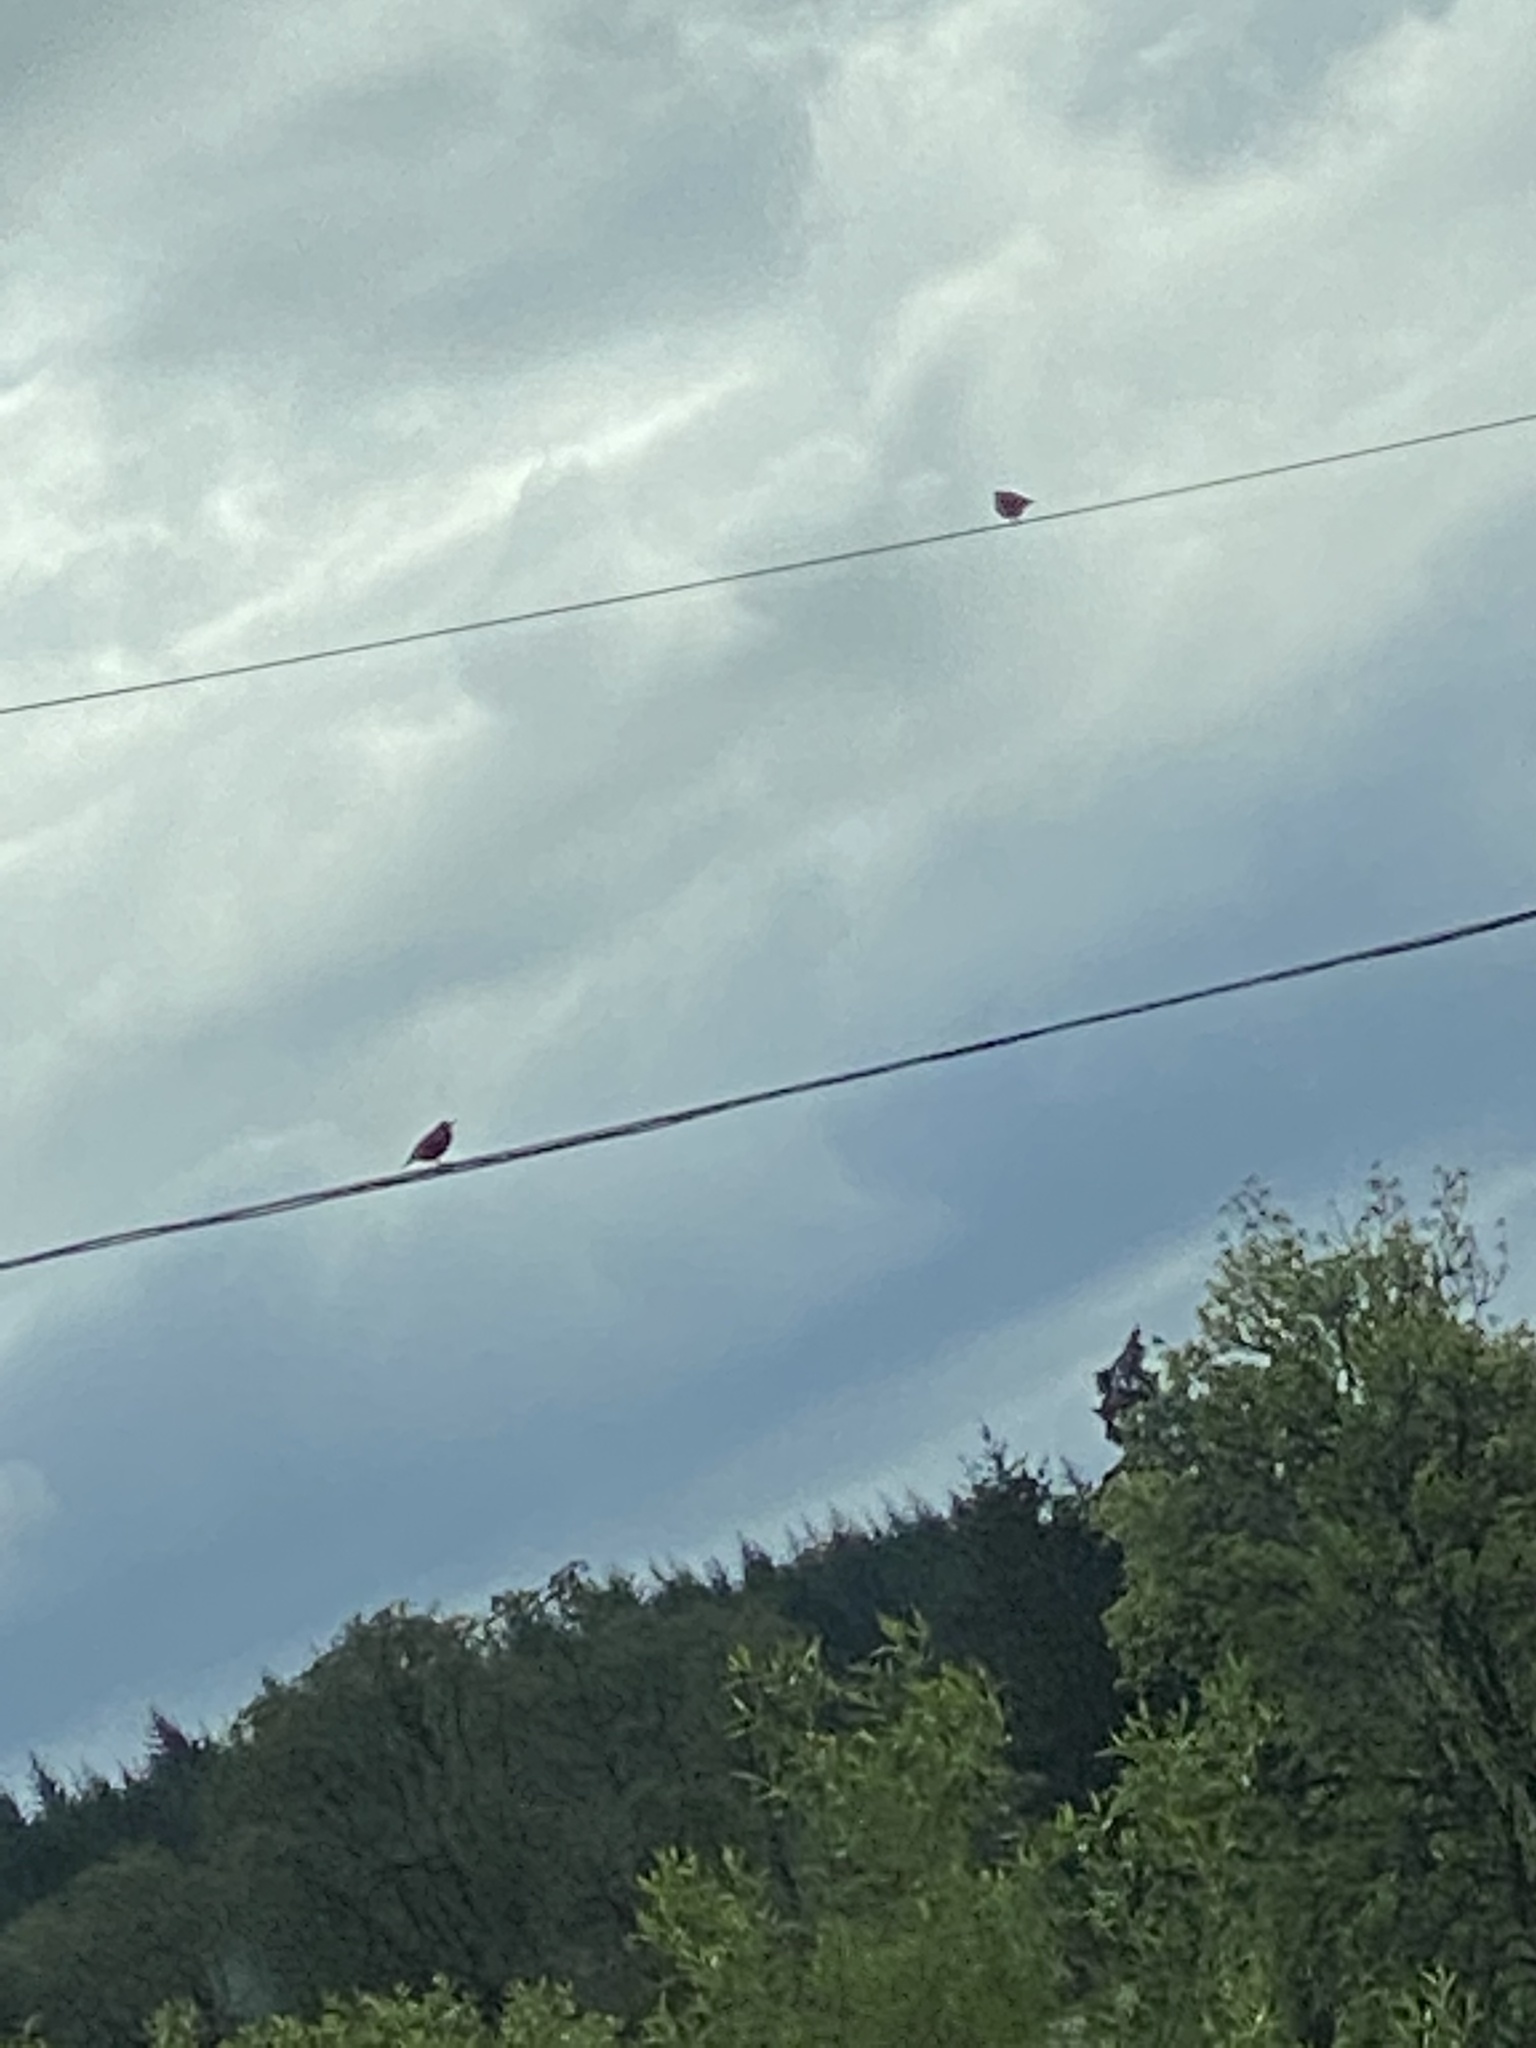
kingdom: Animalia
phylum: Chordata
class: Aves
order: Passeriformes
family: Sturnidae
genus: Sturnus
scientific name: Sturnus vulgaris
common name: Common starling
